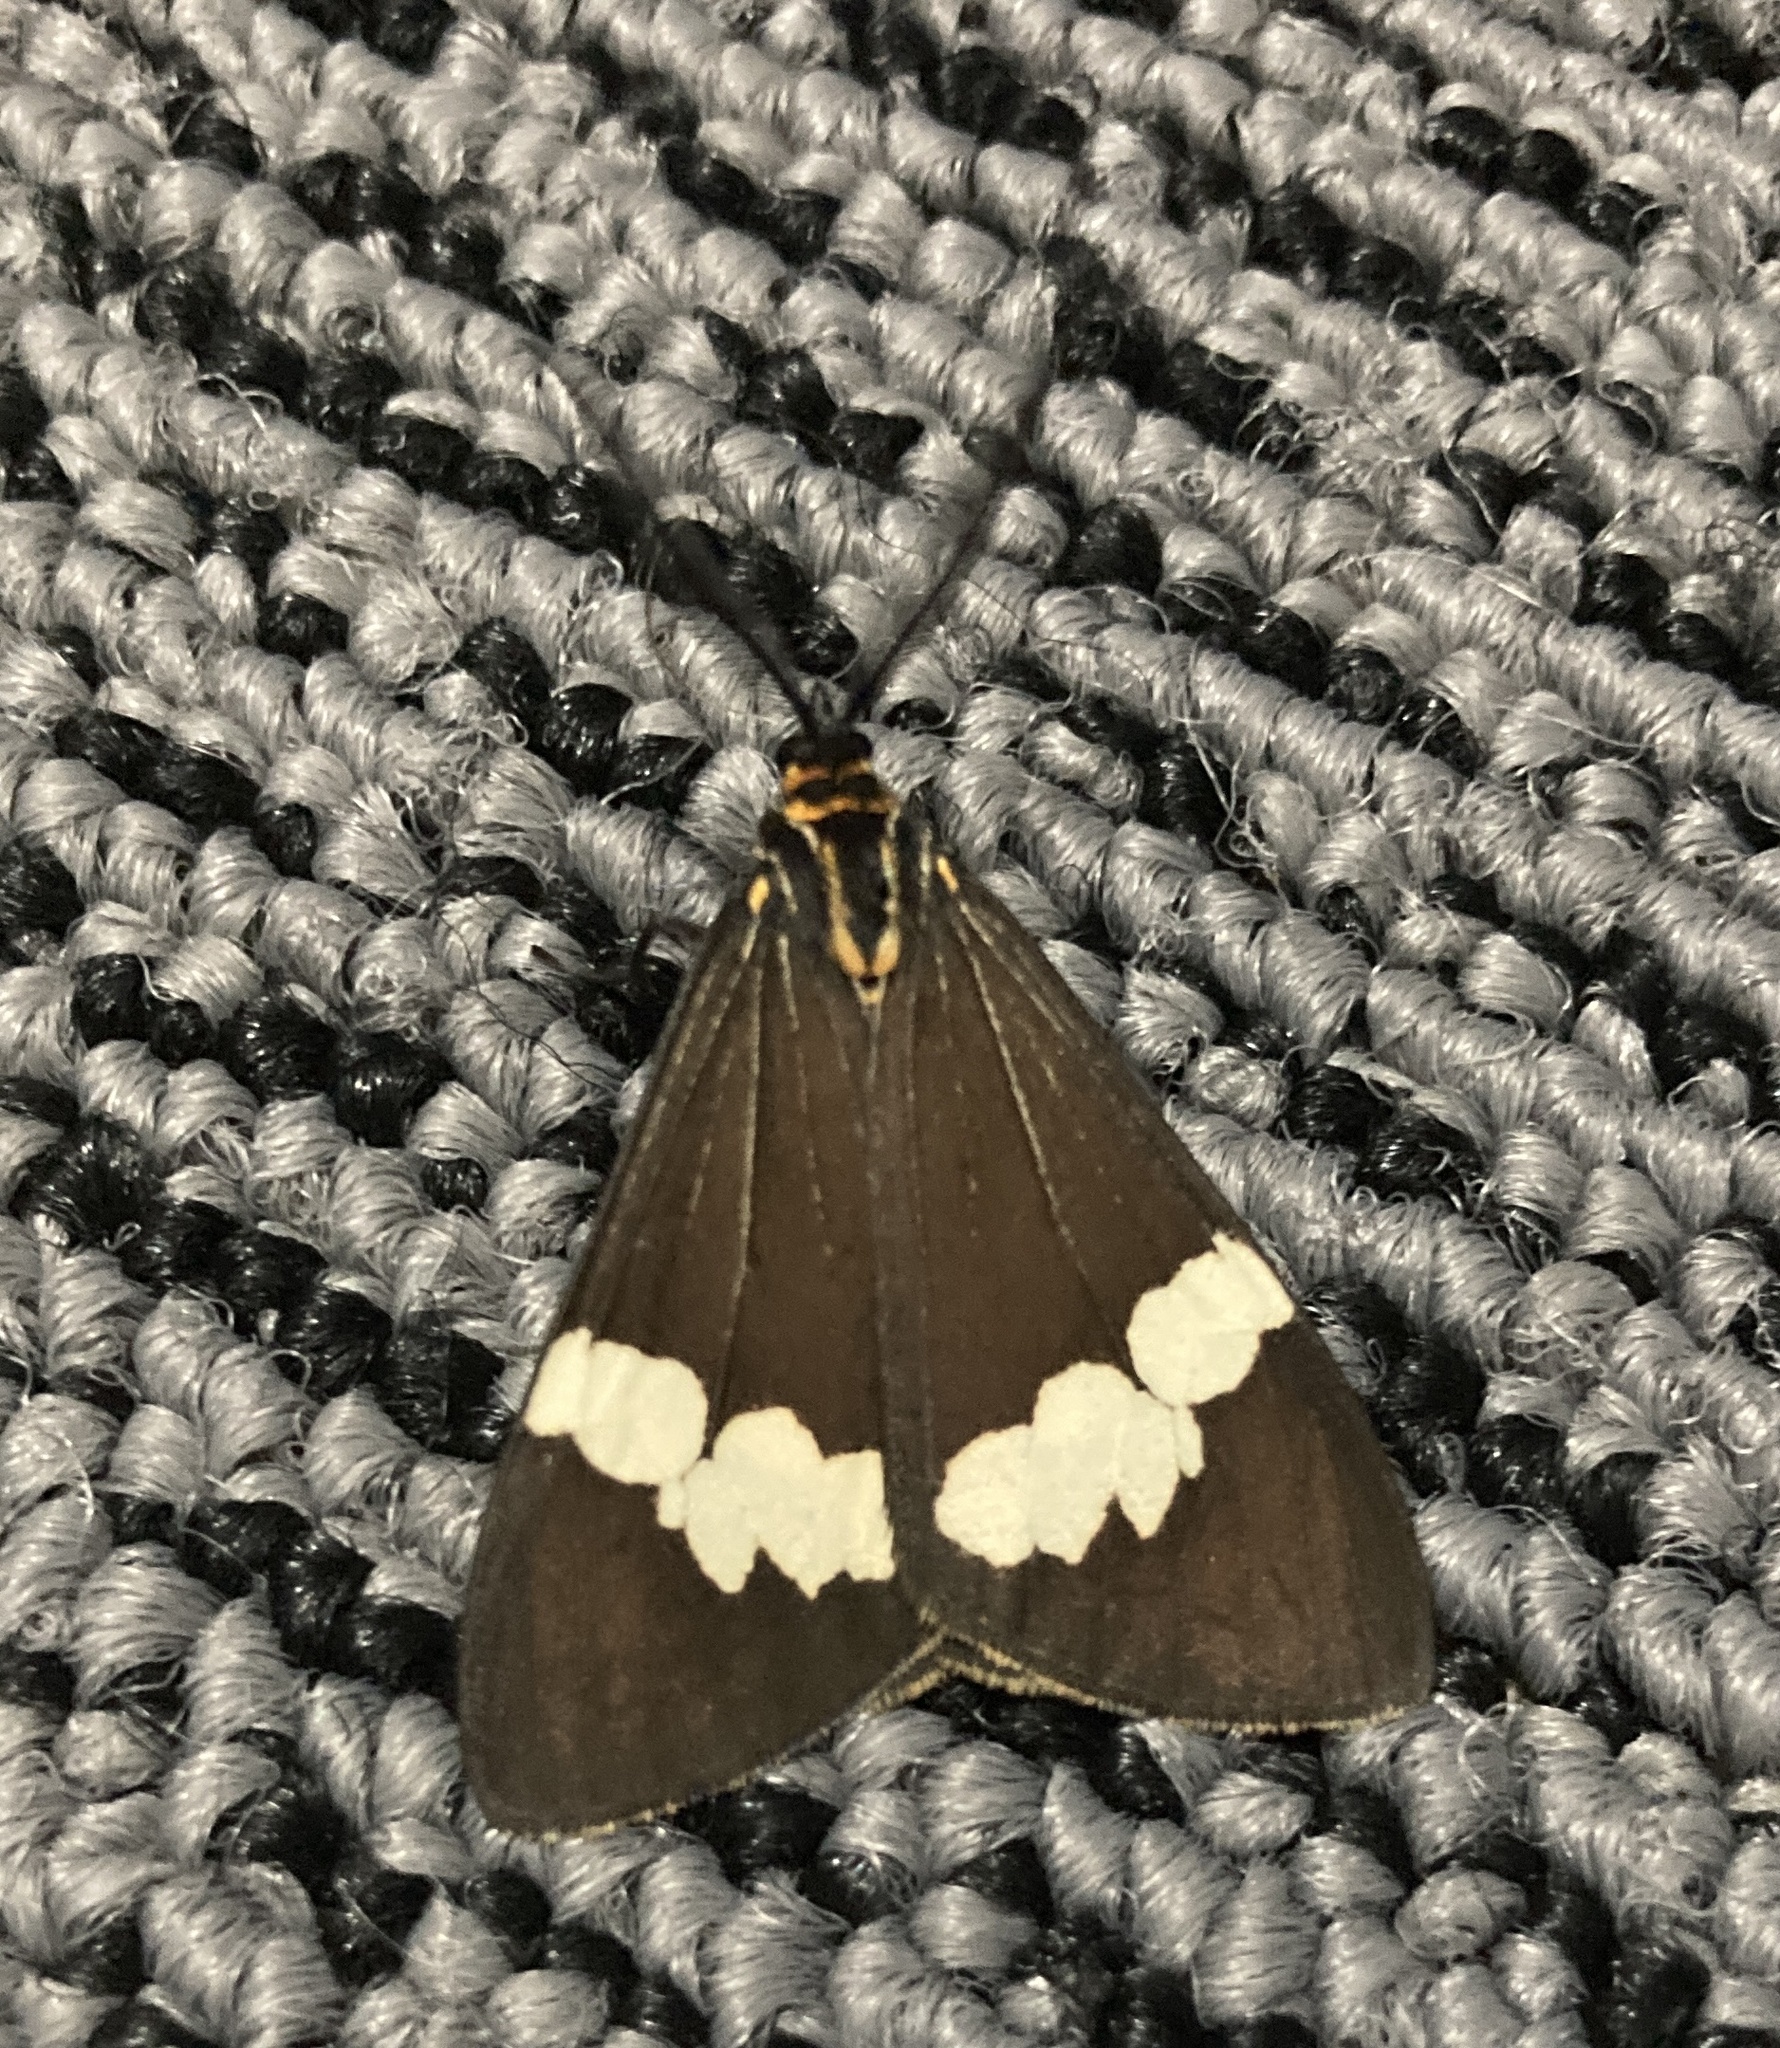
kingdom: Animalia
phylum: Arthropoda
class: Insecta
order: Lepidoptera
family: Erebidae
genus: Nyctemera
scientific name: Nyctemera amicus
